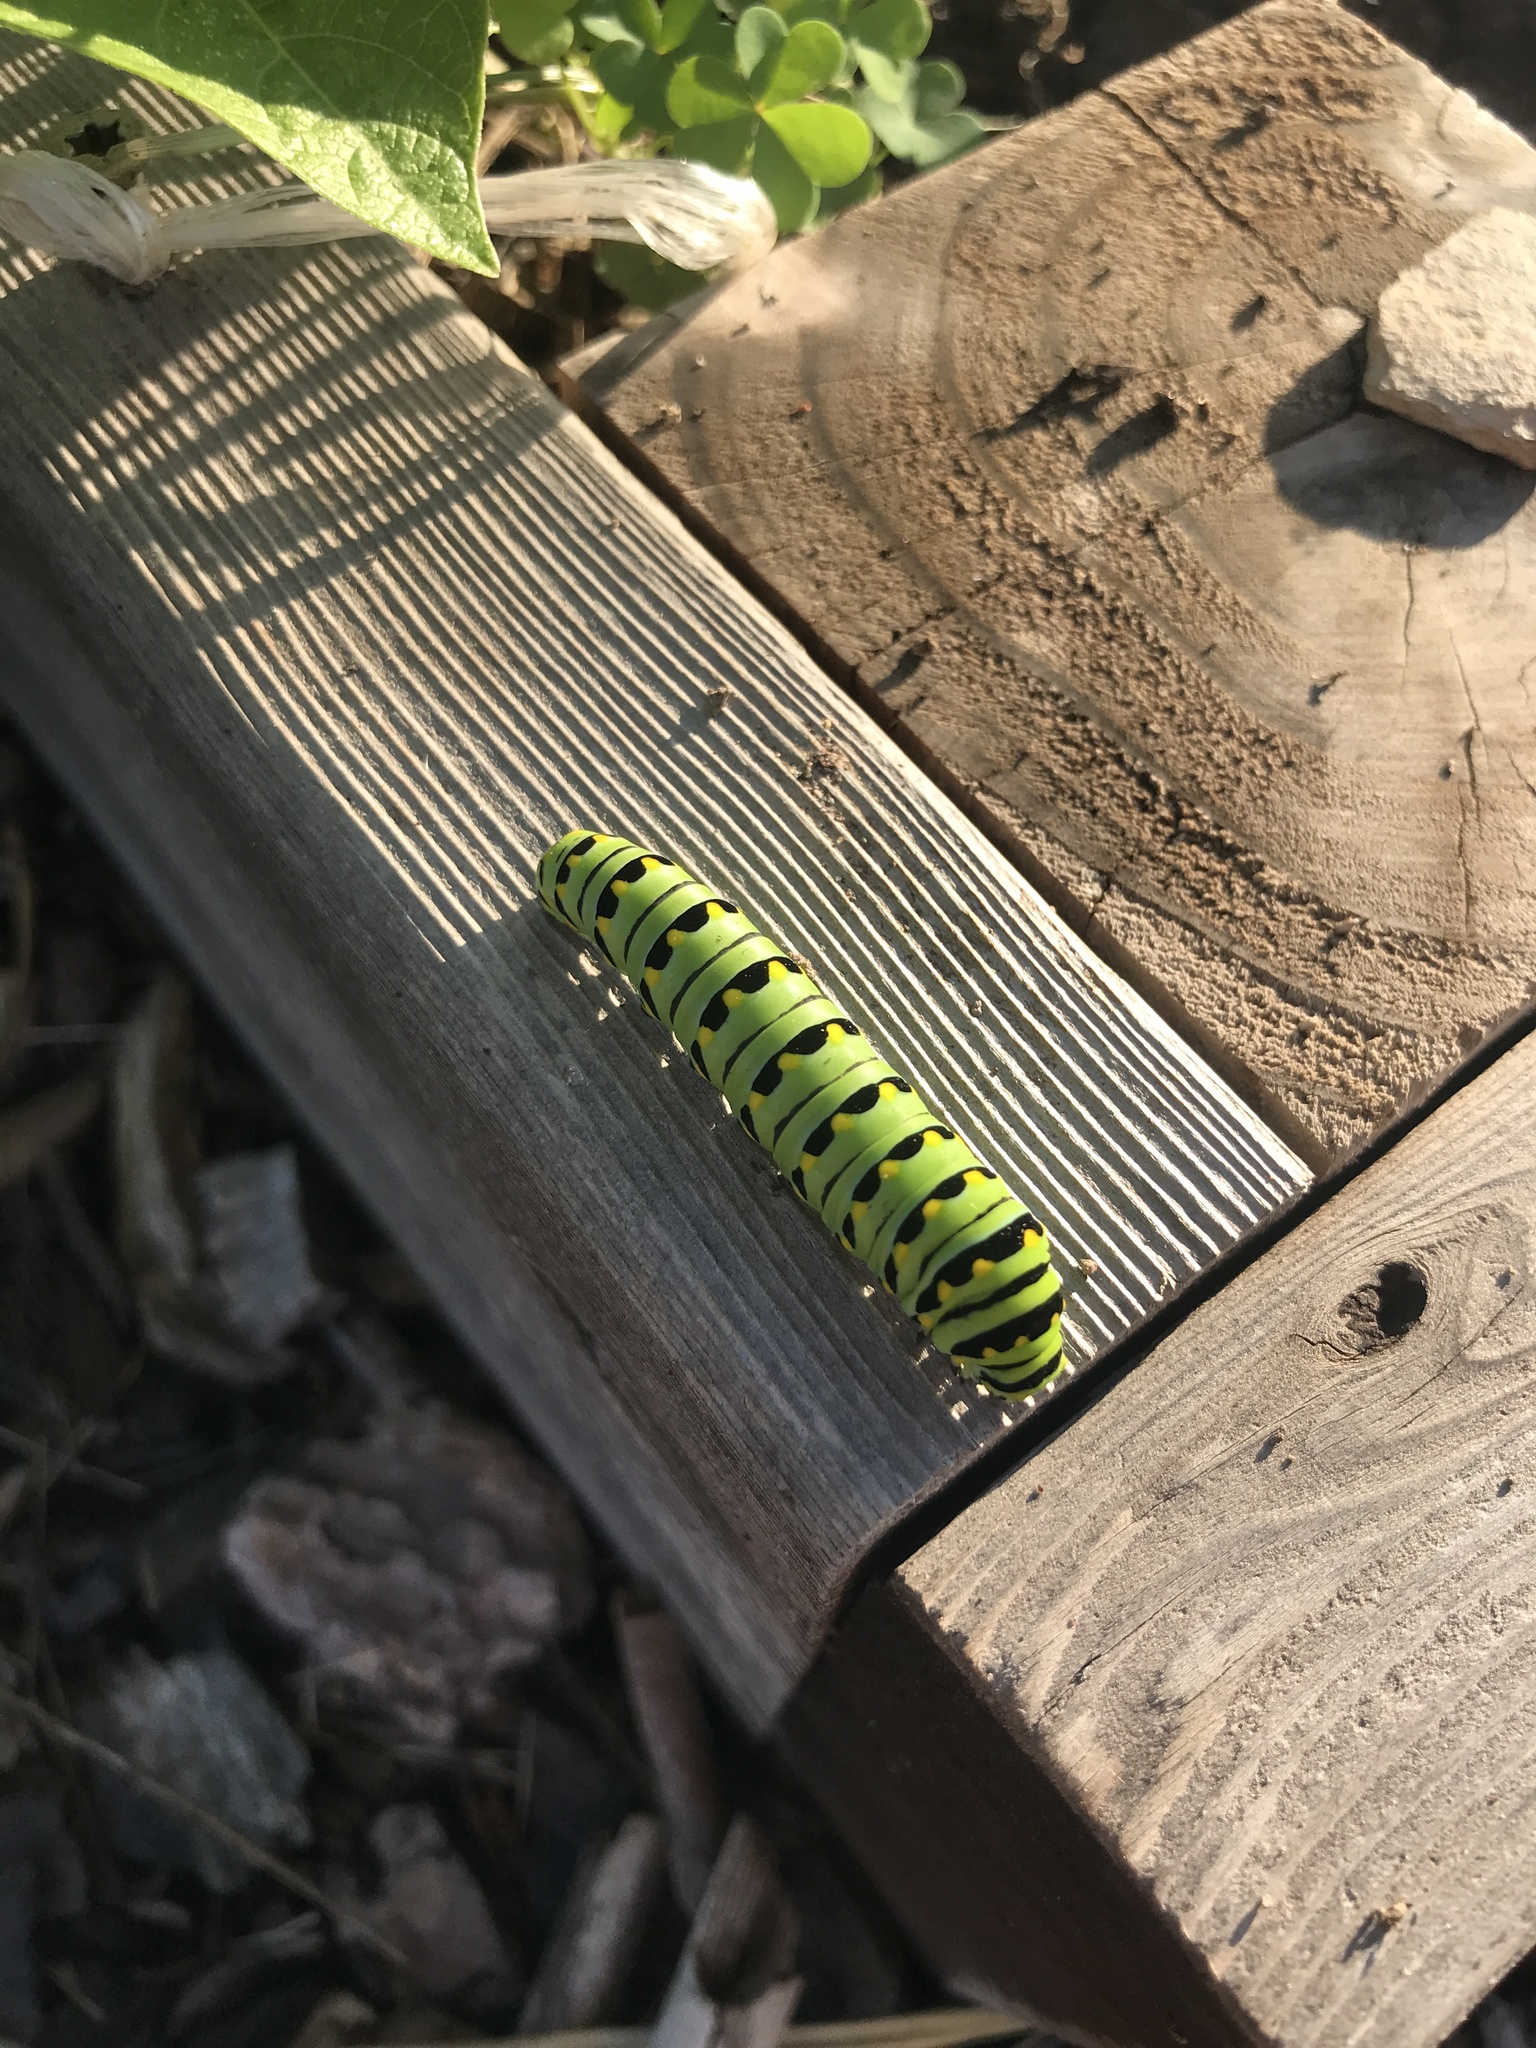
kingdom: Animalia
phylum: Arthropoda
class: Insecta
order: Lepidoptera
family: Papilionidae
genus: Papilio
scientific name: Papilio polyxenes
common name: Black swallowtail
